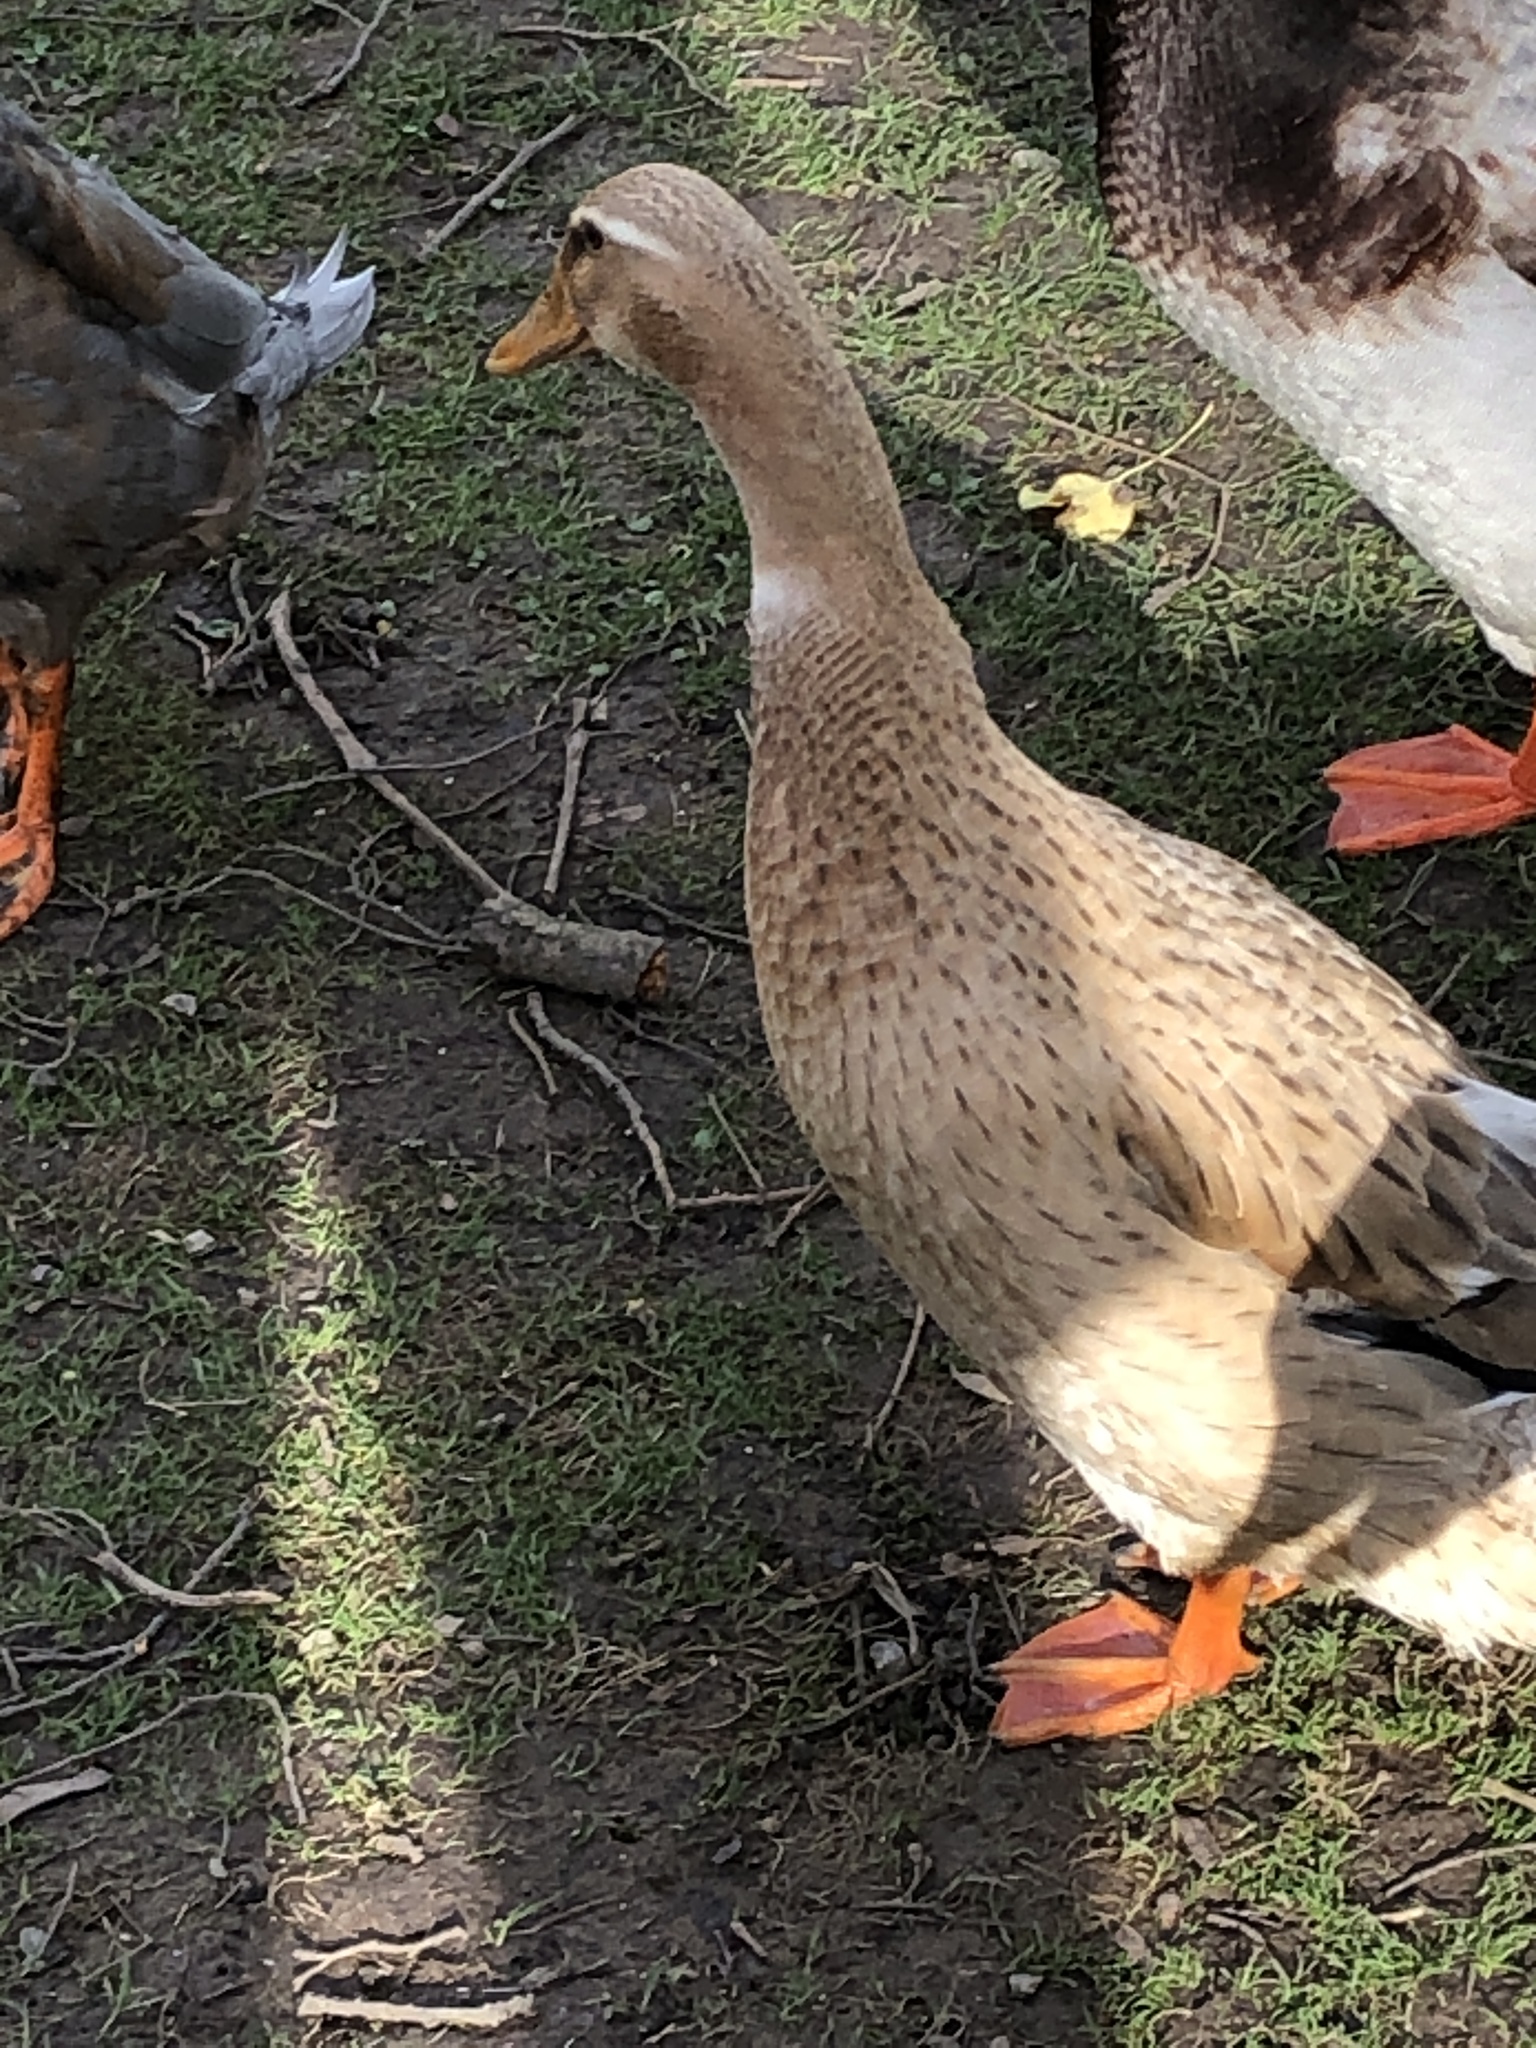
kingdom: Animalia
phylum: Chordata
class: Aves
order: Anseriformes
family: Anatidae
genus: Anas
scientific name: Anas platyrhynchos
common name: Mallard
